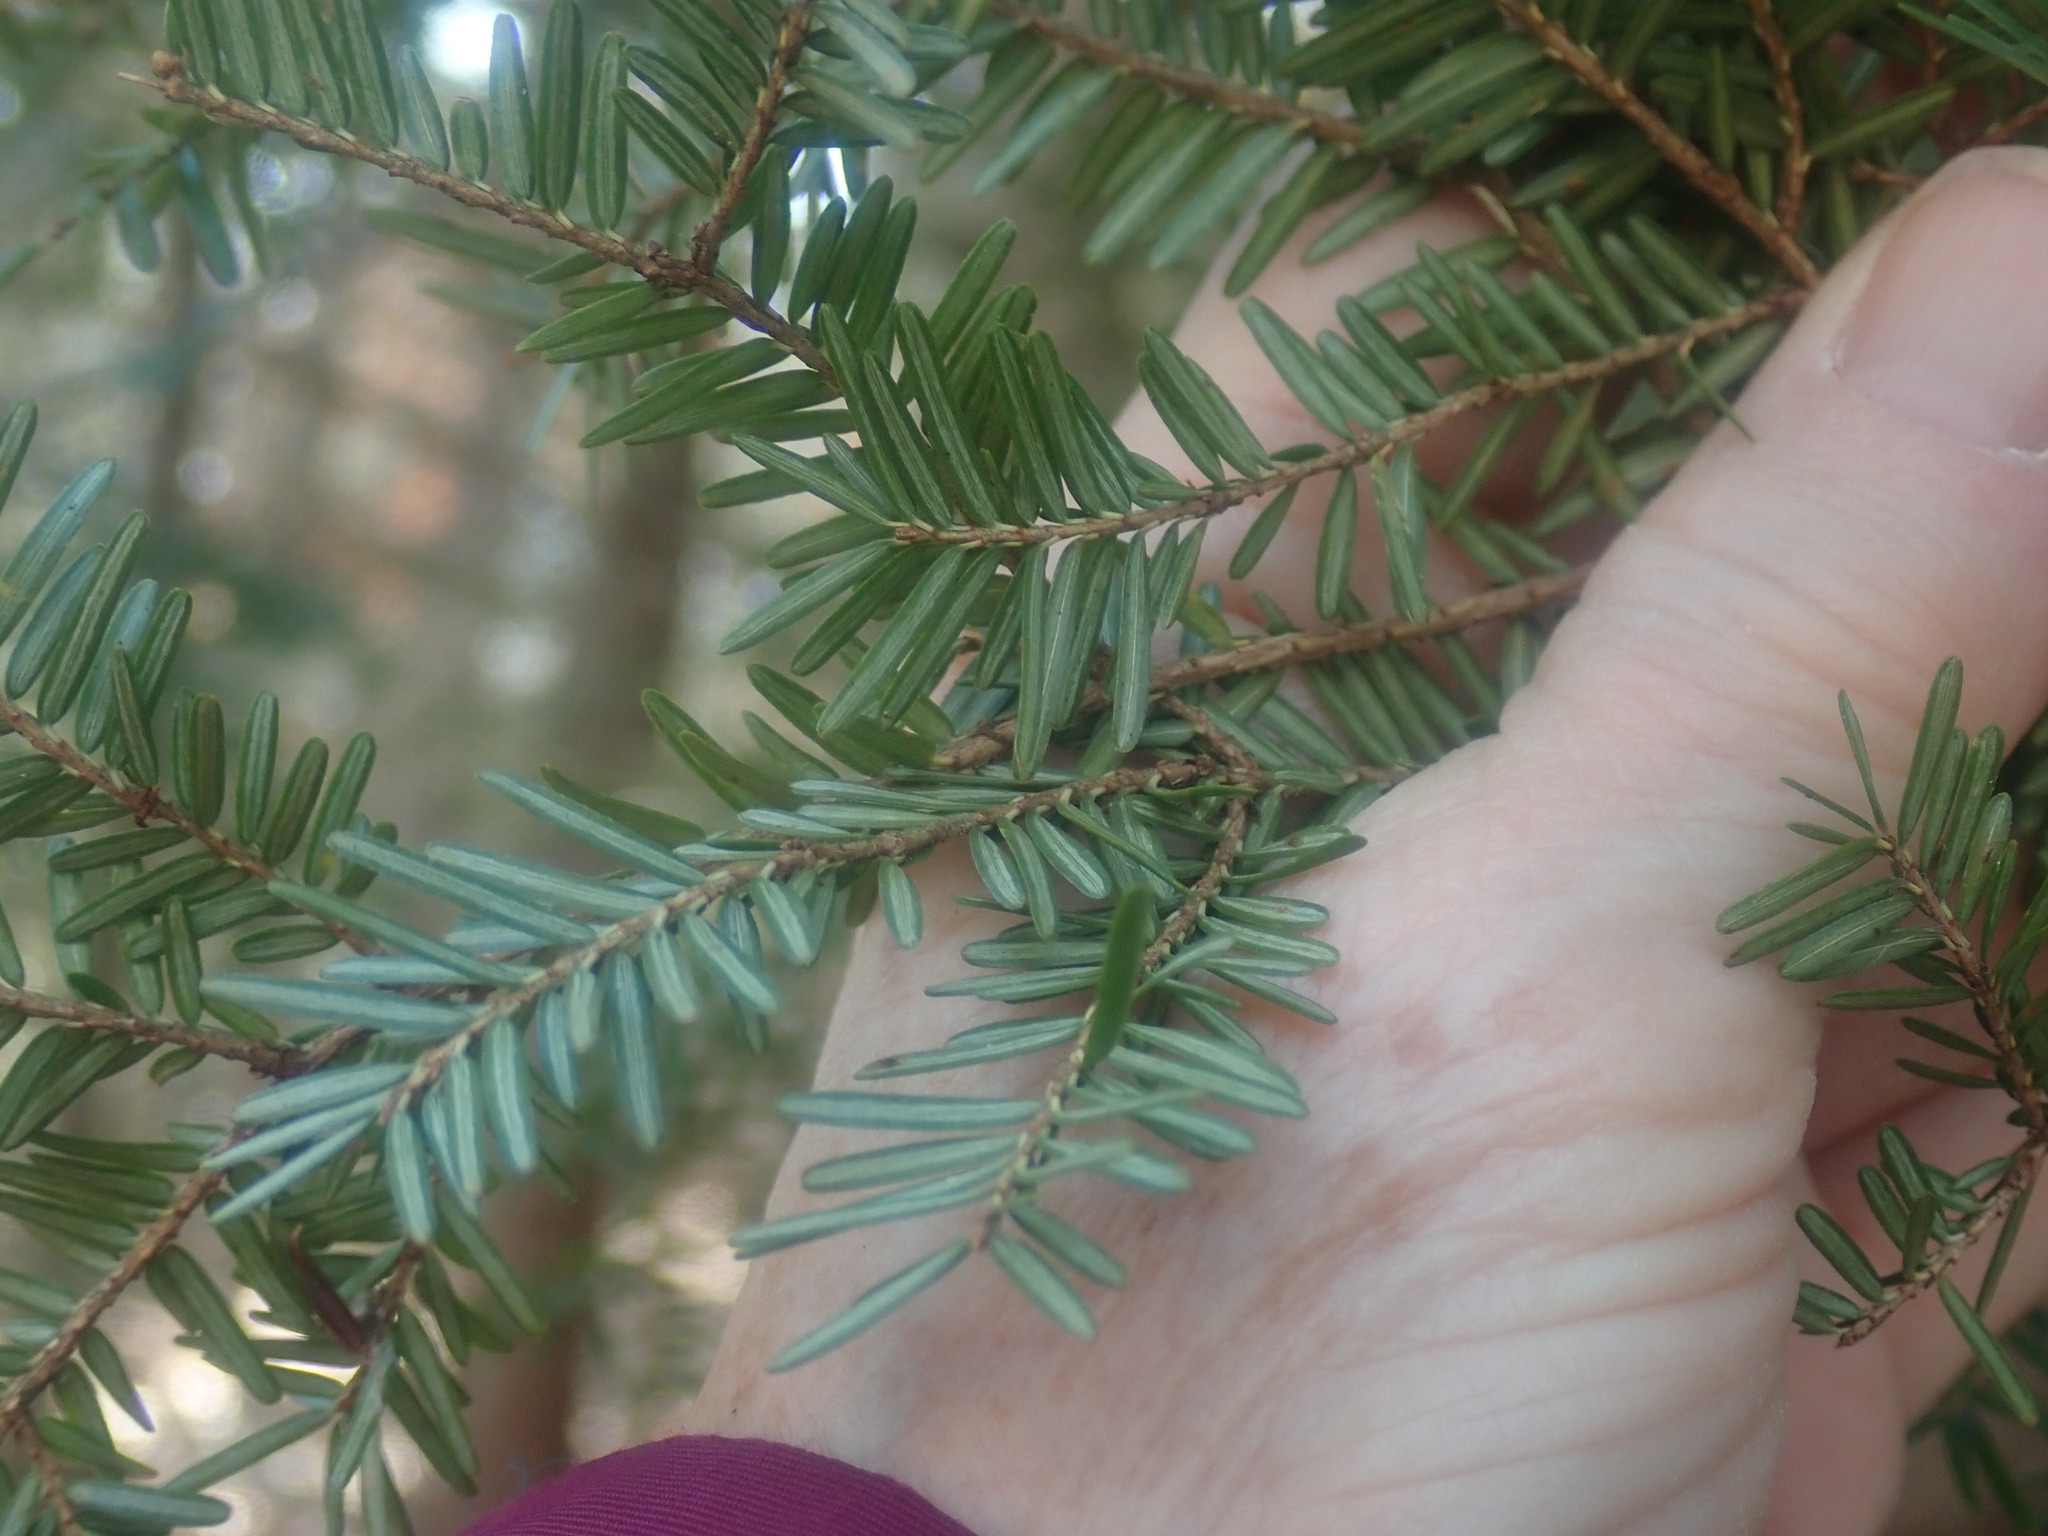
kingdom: Plantae
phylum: Tracheophyta
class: Pinopsida
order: Pinales
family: Pinaceae
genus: Tsuga
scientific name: Tsuga canadensis
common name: Eastern hemlock
